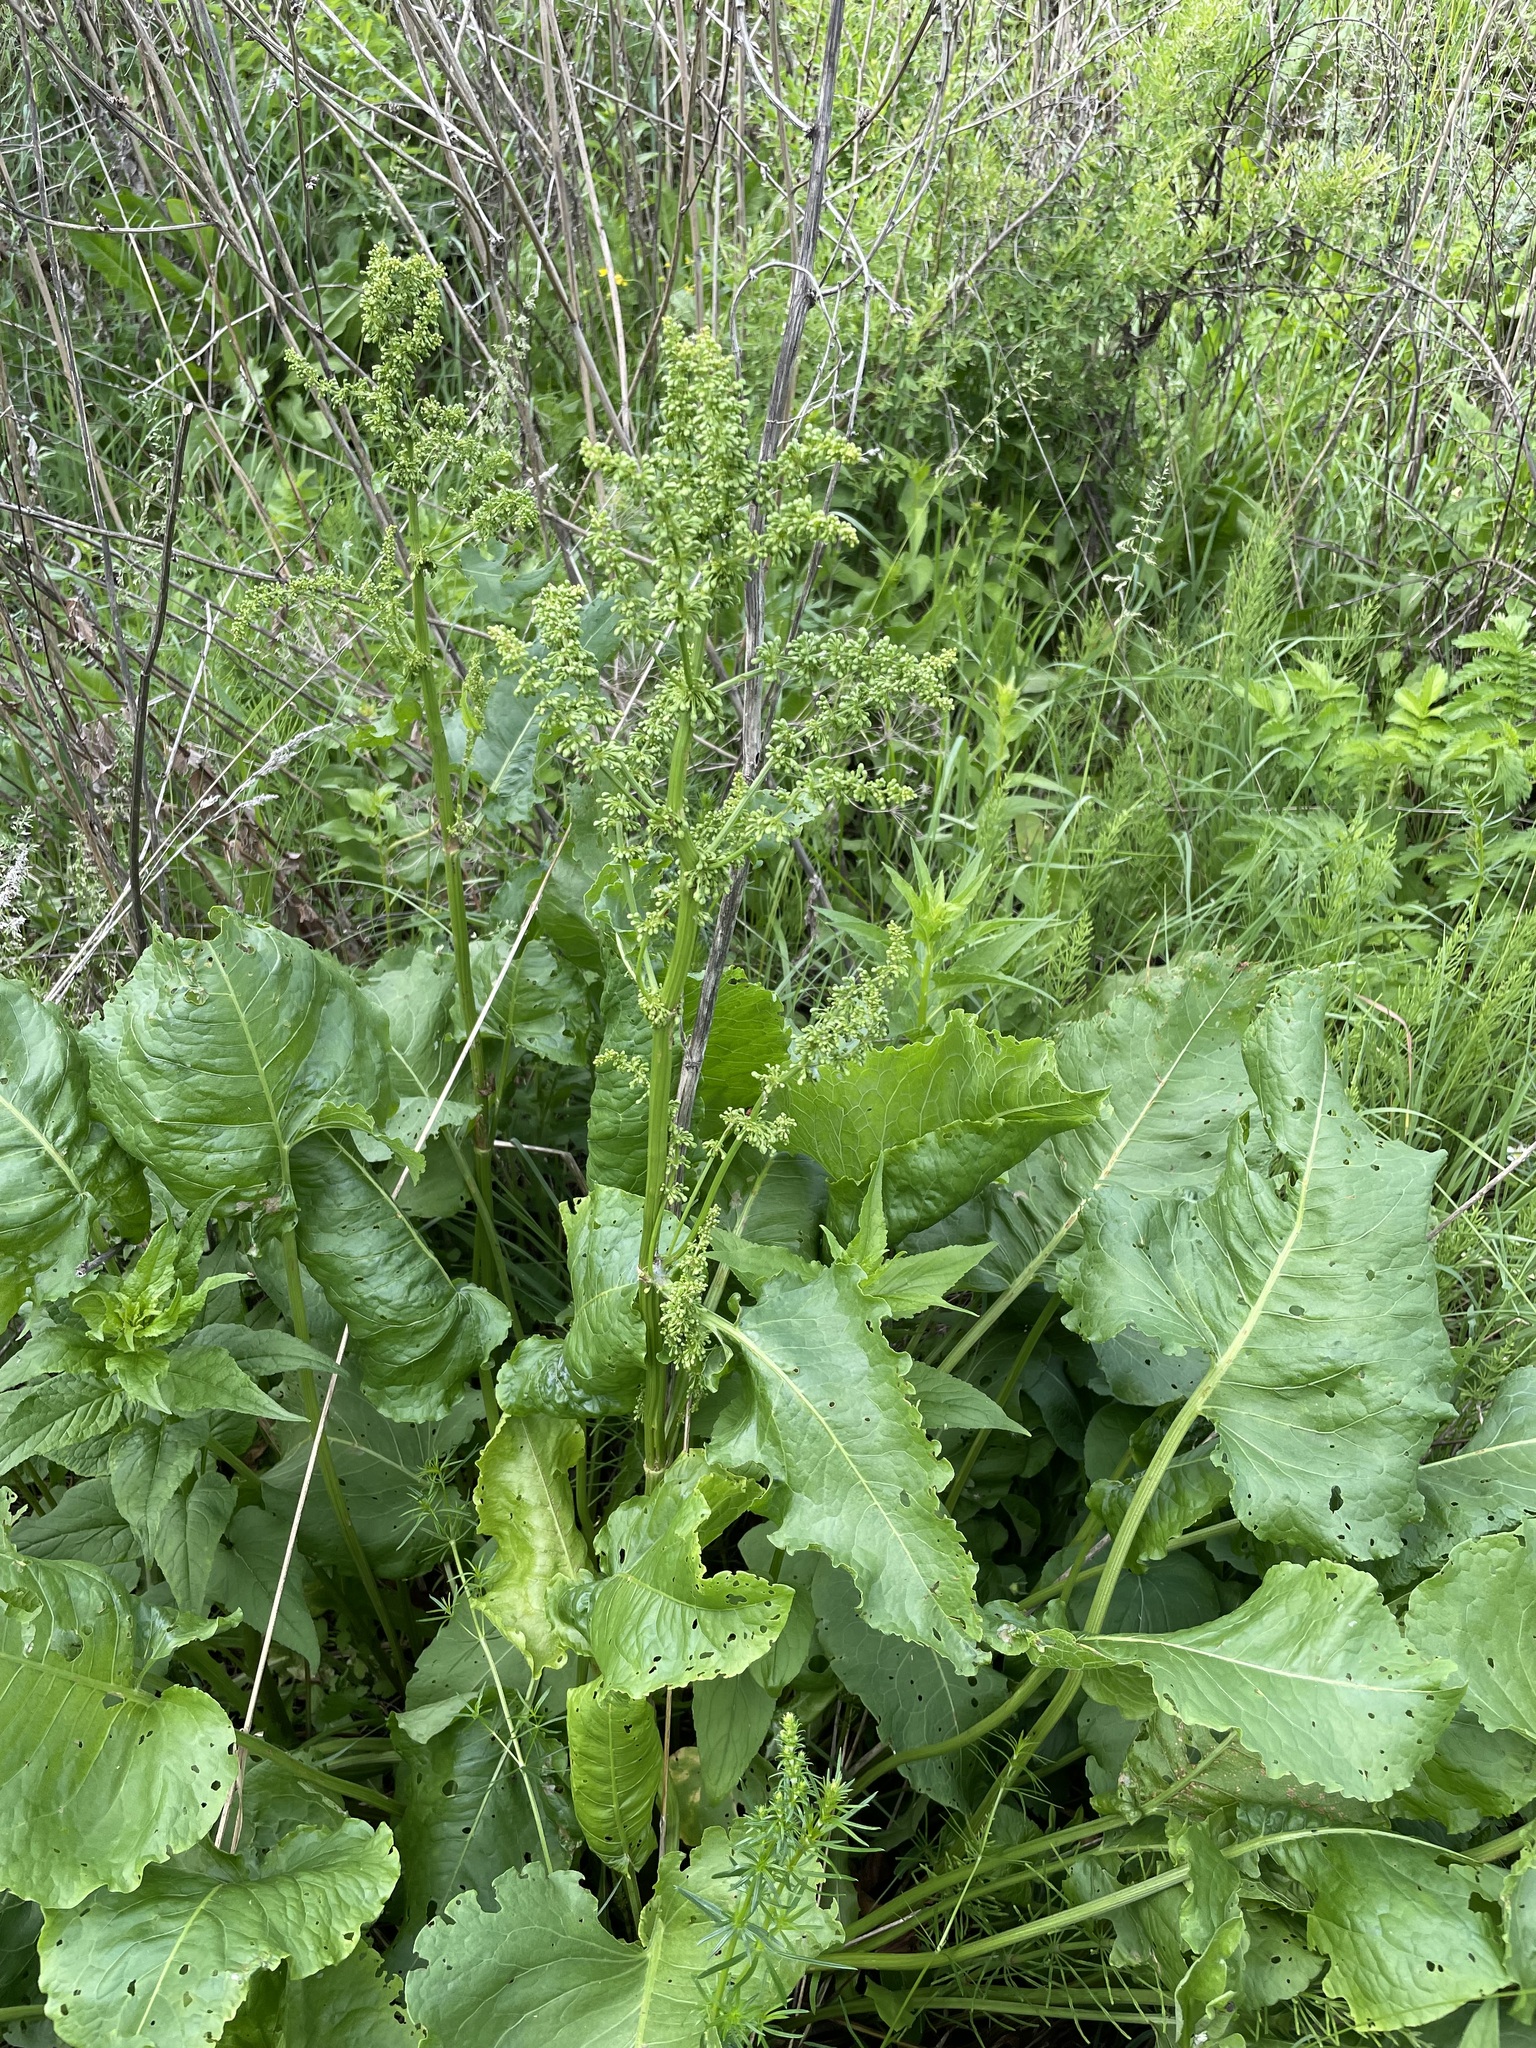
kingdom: Plantae
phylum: Tracheophyta
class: Magnoliopsida
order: Caryophyllales
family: Polygonaceae
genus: Rumex
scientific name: Rumex confertus
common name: Russian dock
